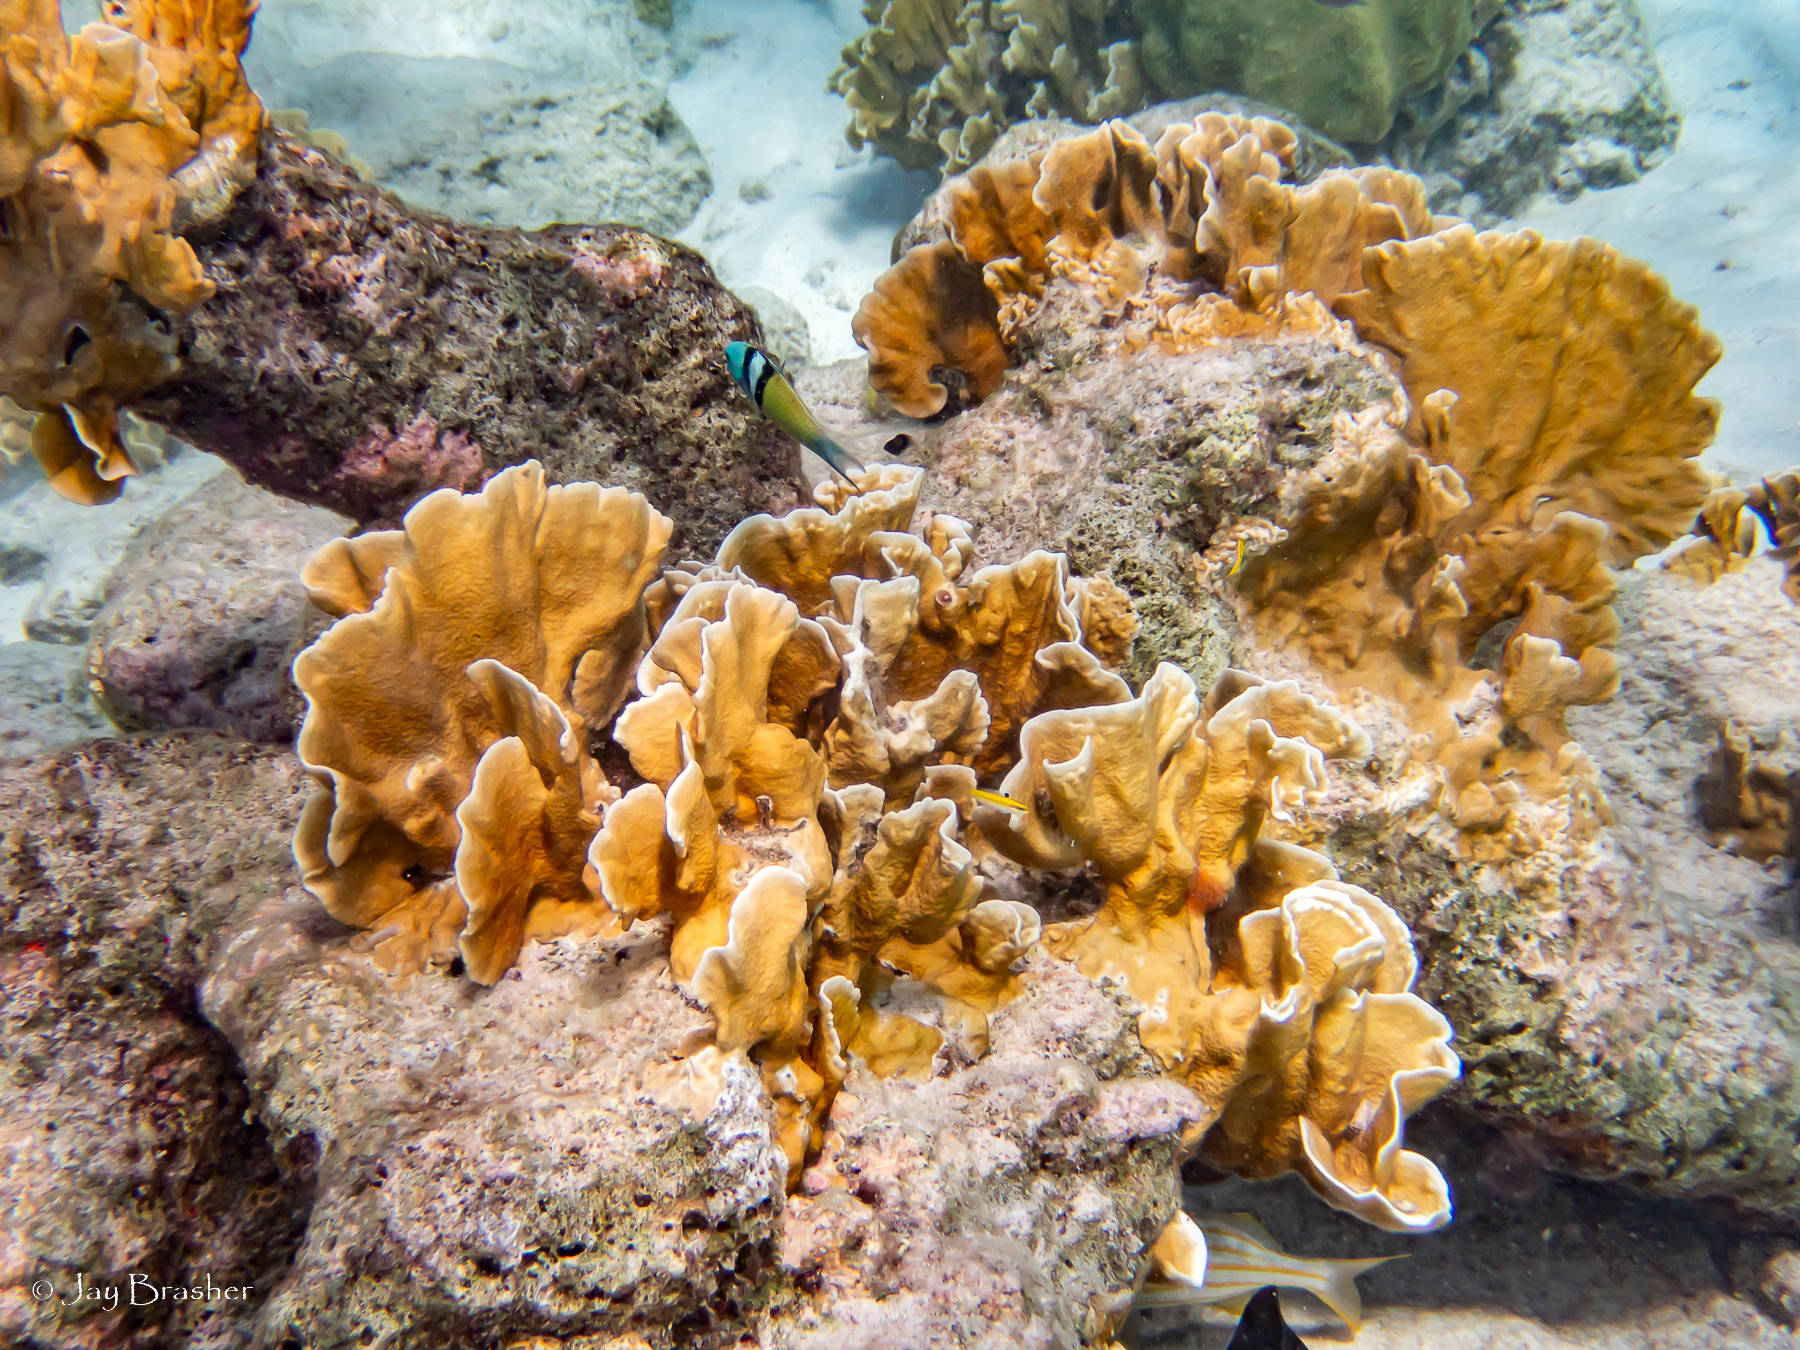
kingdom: Animalia
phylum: Cnidaria
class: Hydrozoa
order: Anthoathecata
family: Milleporidae
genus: Millepora
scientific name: Millepora complanata
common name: Bladed fire coral
